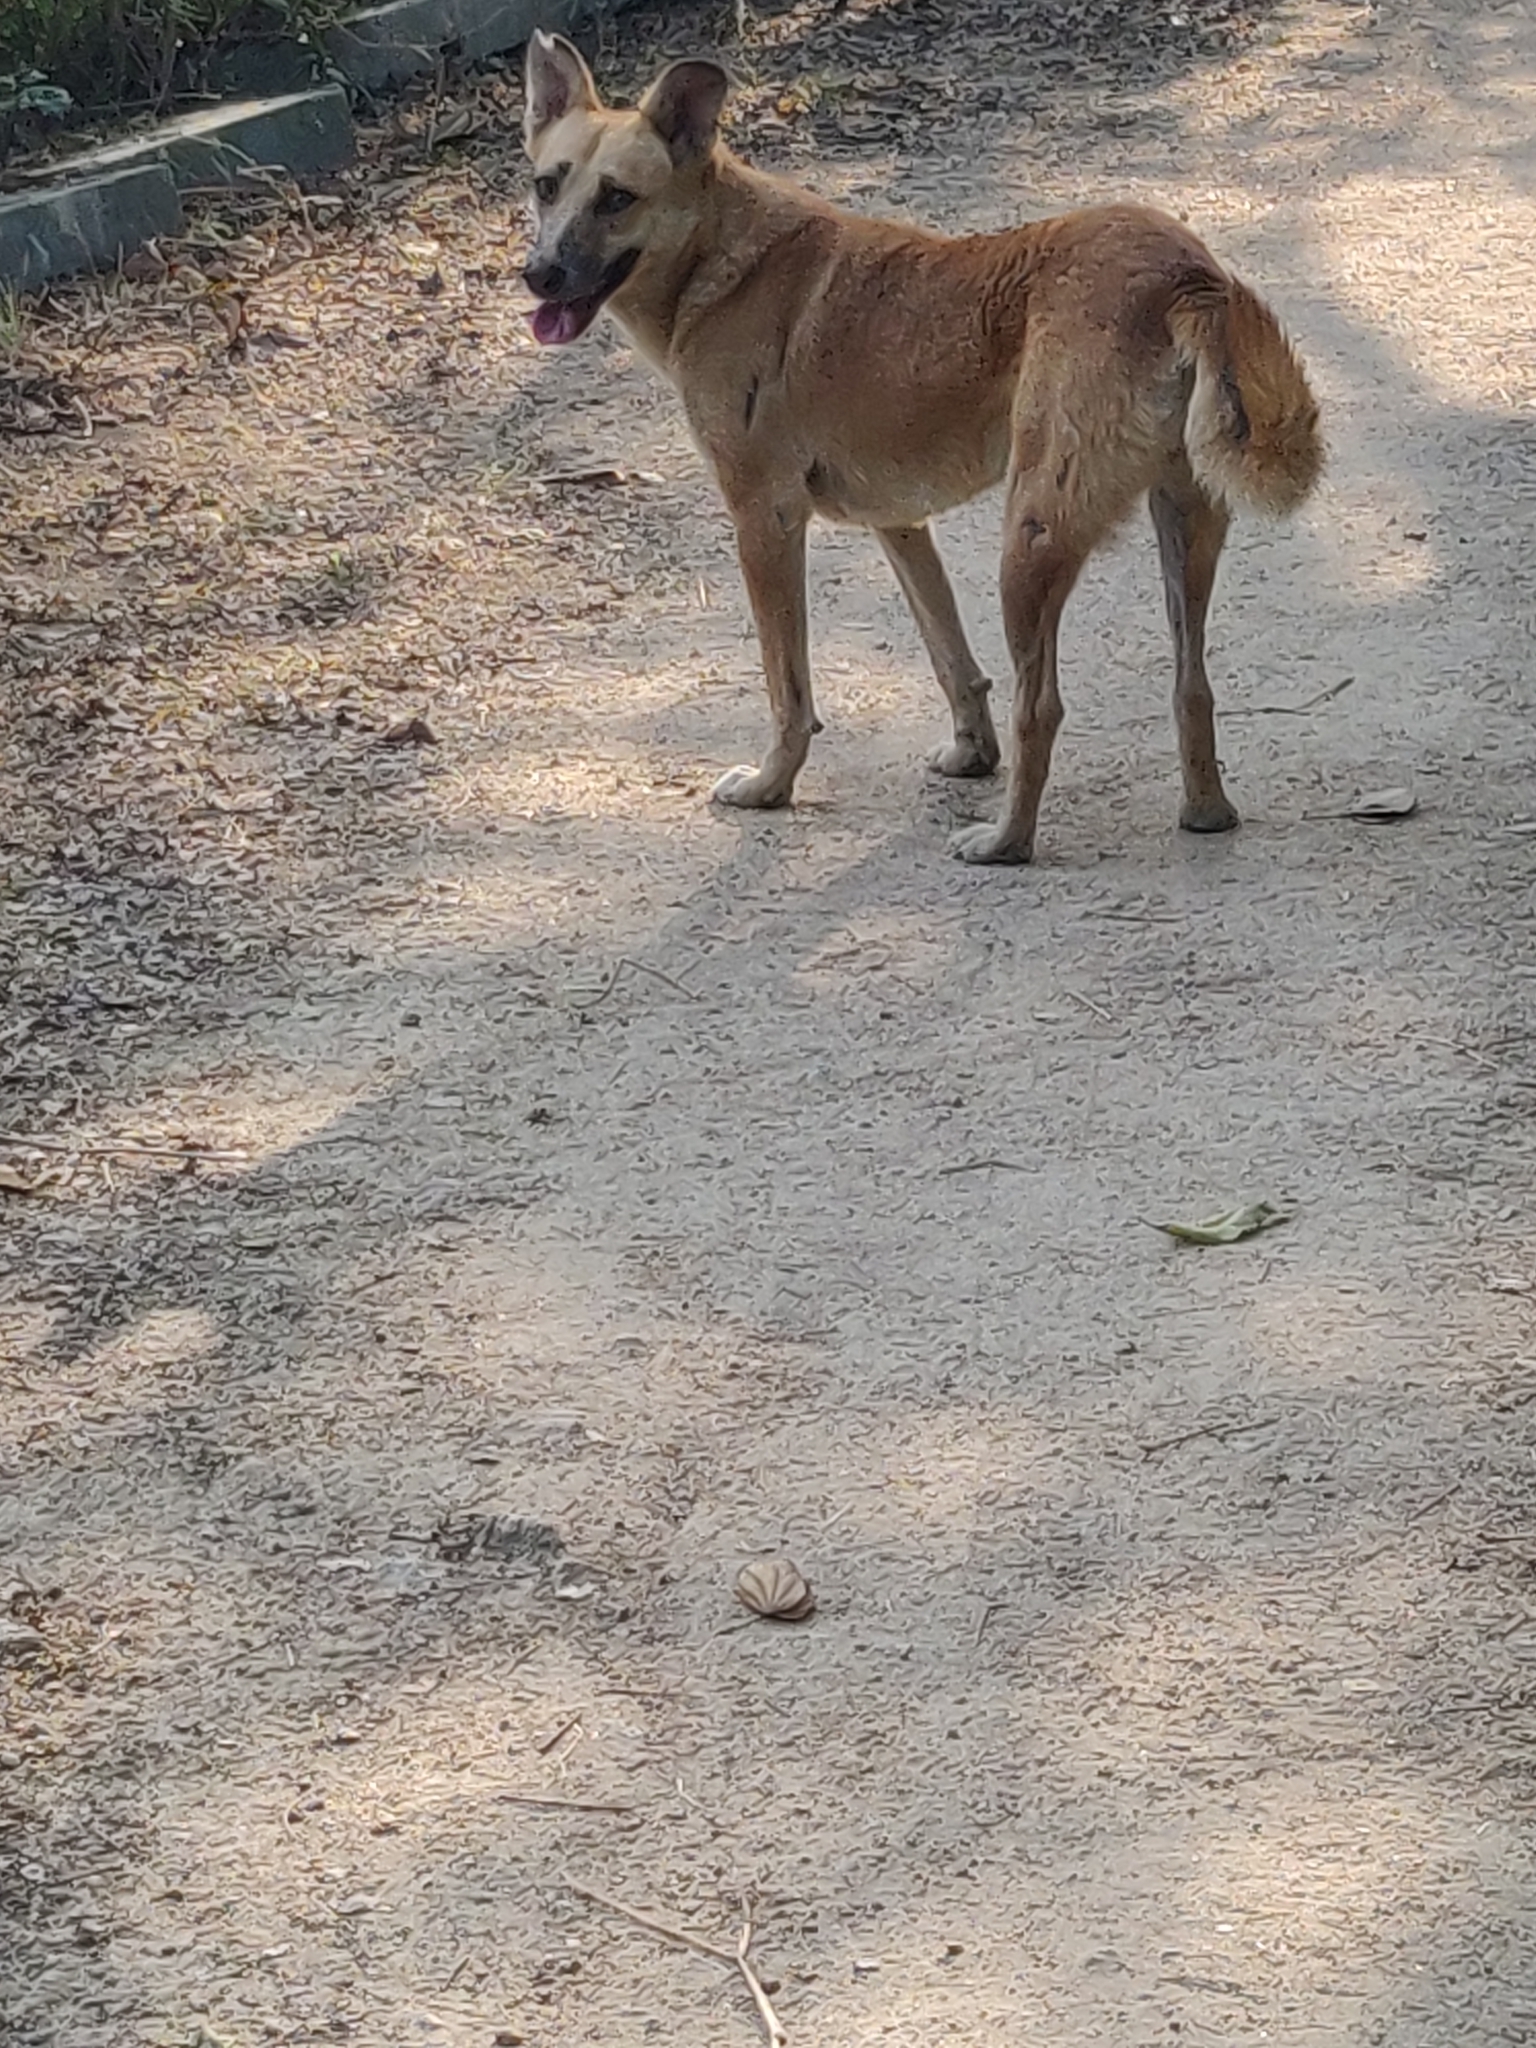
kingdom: Animalia
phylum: Chordata
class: Mammalia
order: Carnivora
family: Canidae
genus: Canis
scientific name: Canis lupus
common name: Gray wolf
